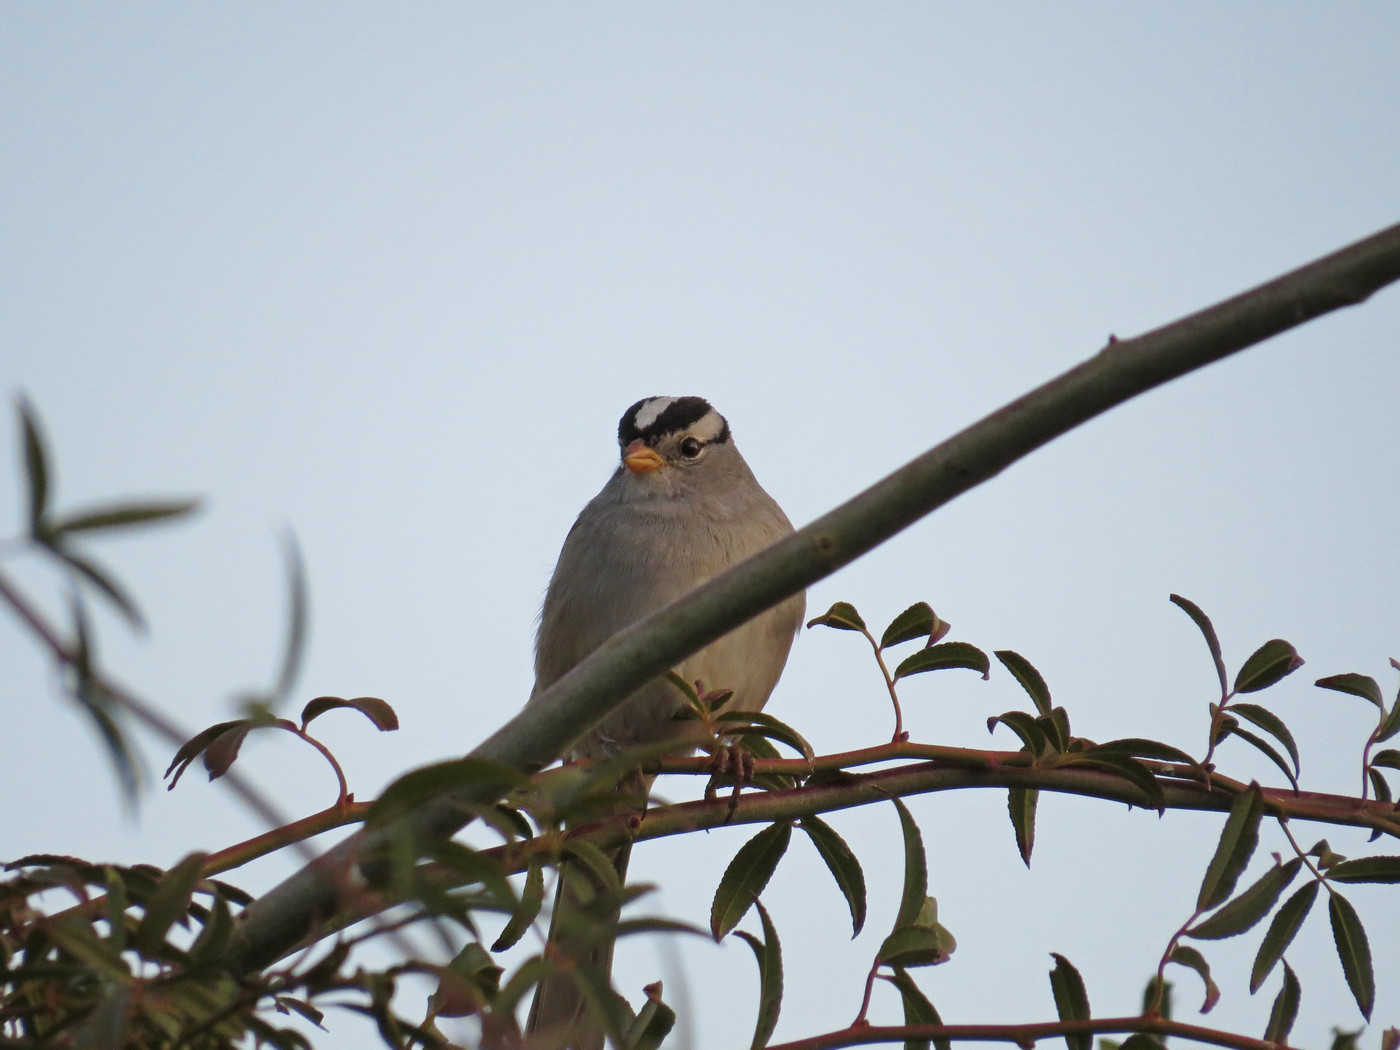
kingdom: Animalia
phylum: Chordata
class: Aves
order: Passeriformes
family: Passerellidae
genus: Zonotrichia
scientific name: Zonotrichia leucophrys
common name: White-crowned sparrow
